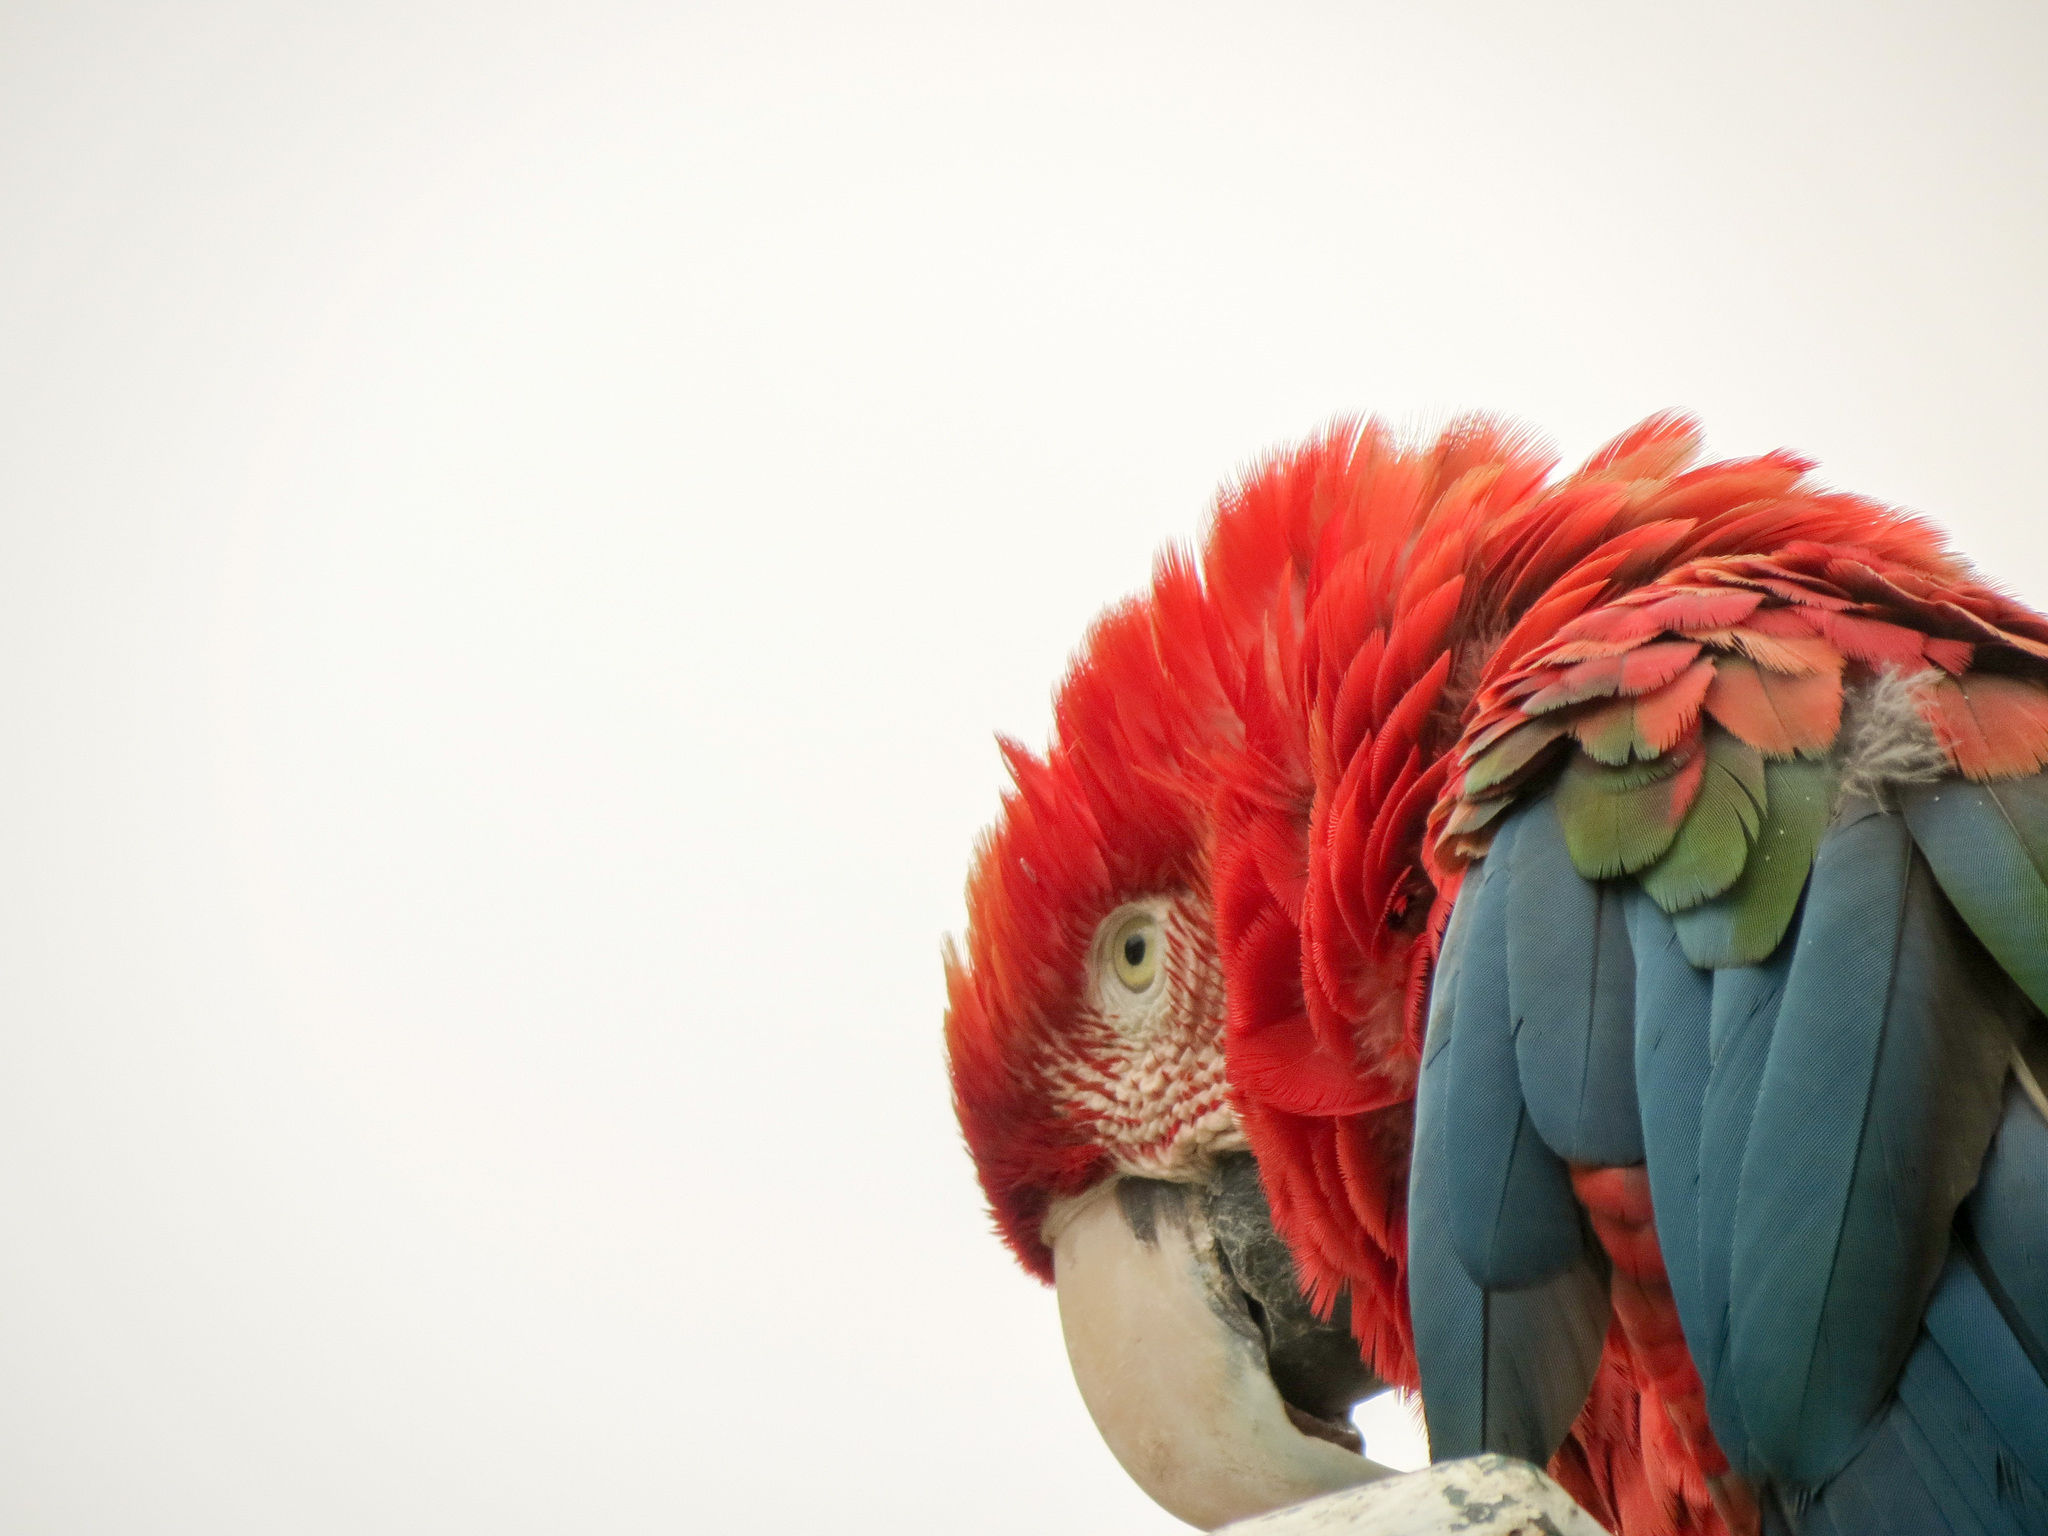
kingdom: Animalia
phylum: Chordata
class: Aves
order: Psittaciformes
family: Psittacidae
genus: Ara
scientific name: Ara chloropterus
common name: Red-and-green macaw
